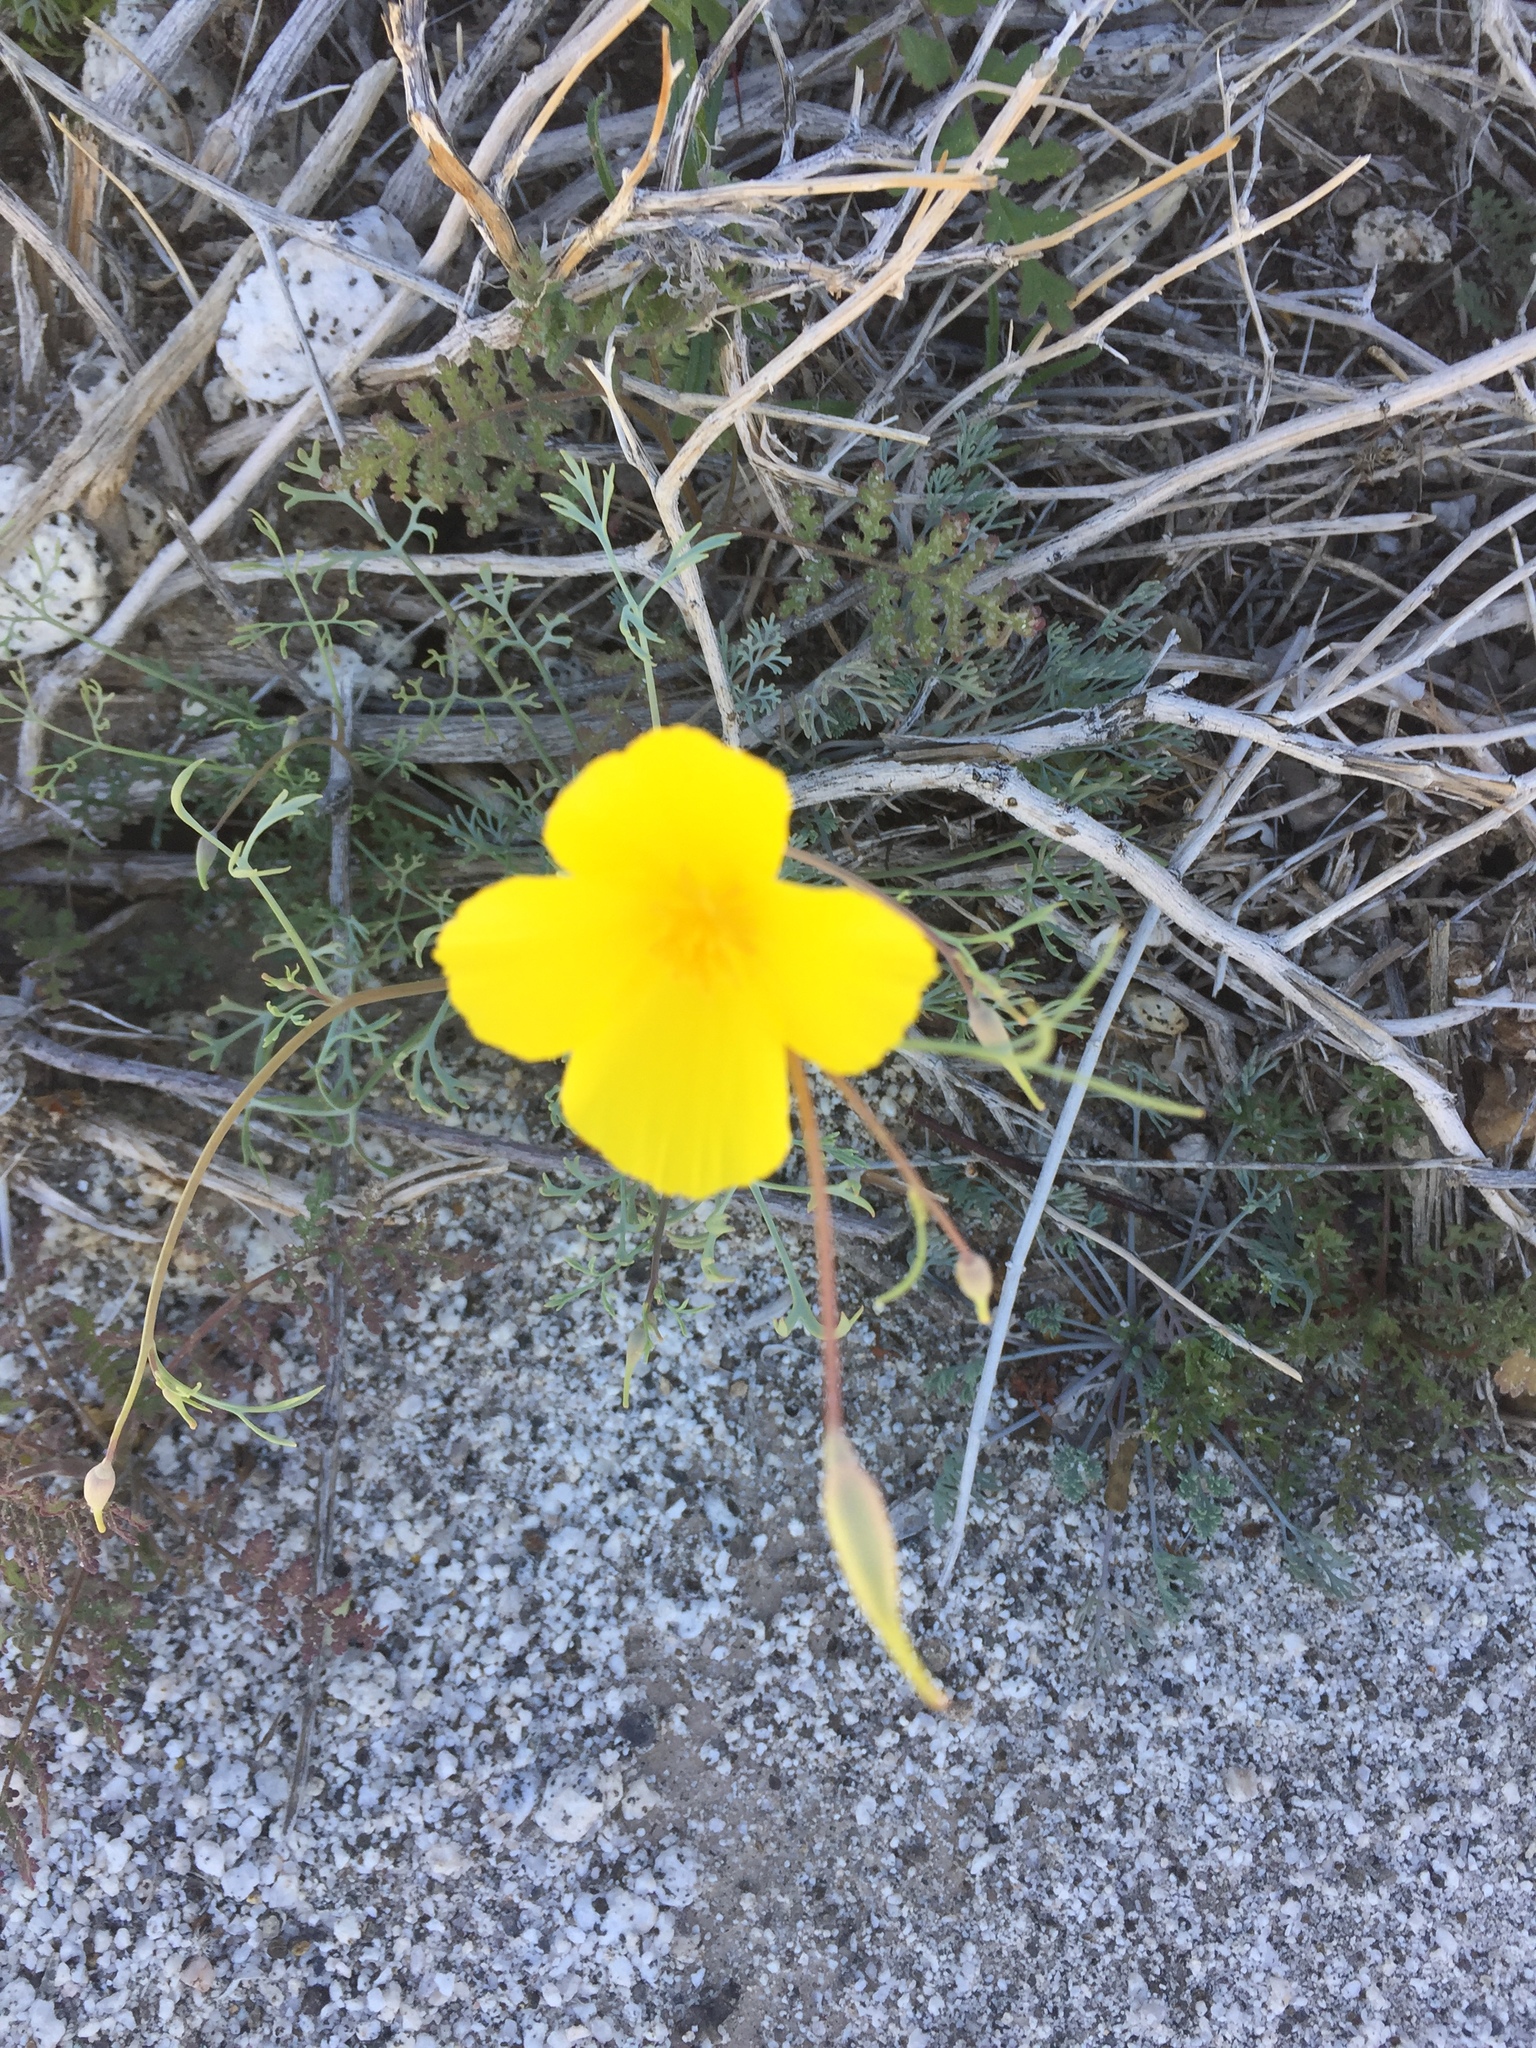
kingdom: Plantae
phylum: Tracheophyta
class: Magnoliopsida
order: Ranunculales
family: Papaveraceae
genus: Eschscholzia
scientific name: Eschscholzia parishii
